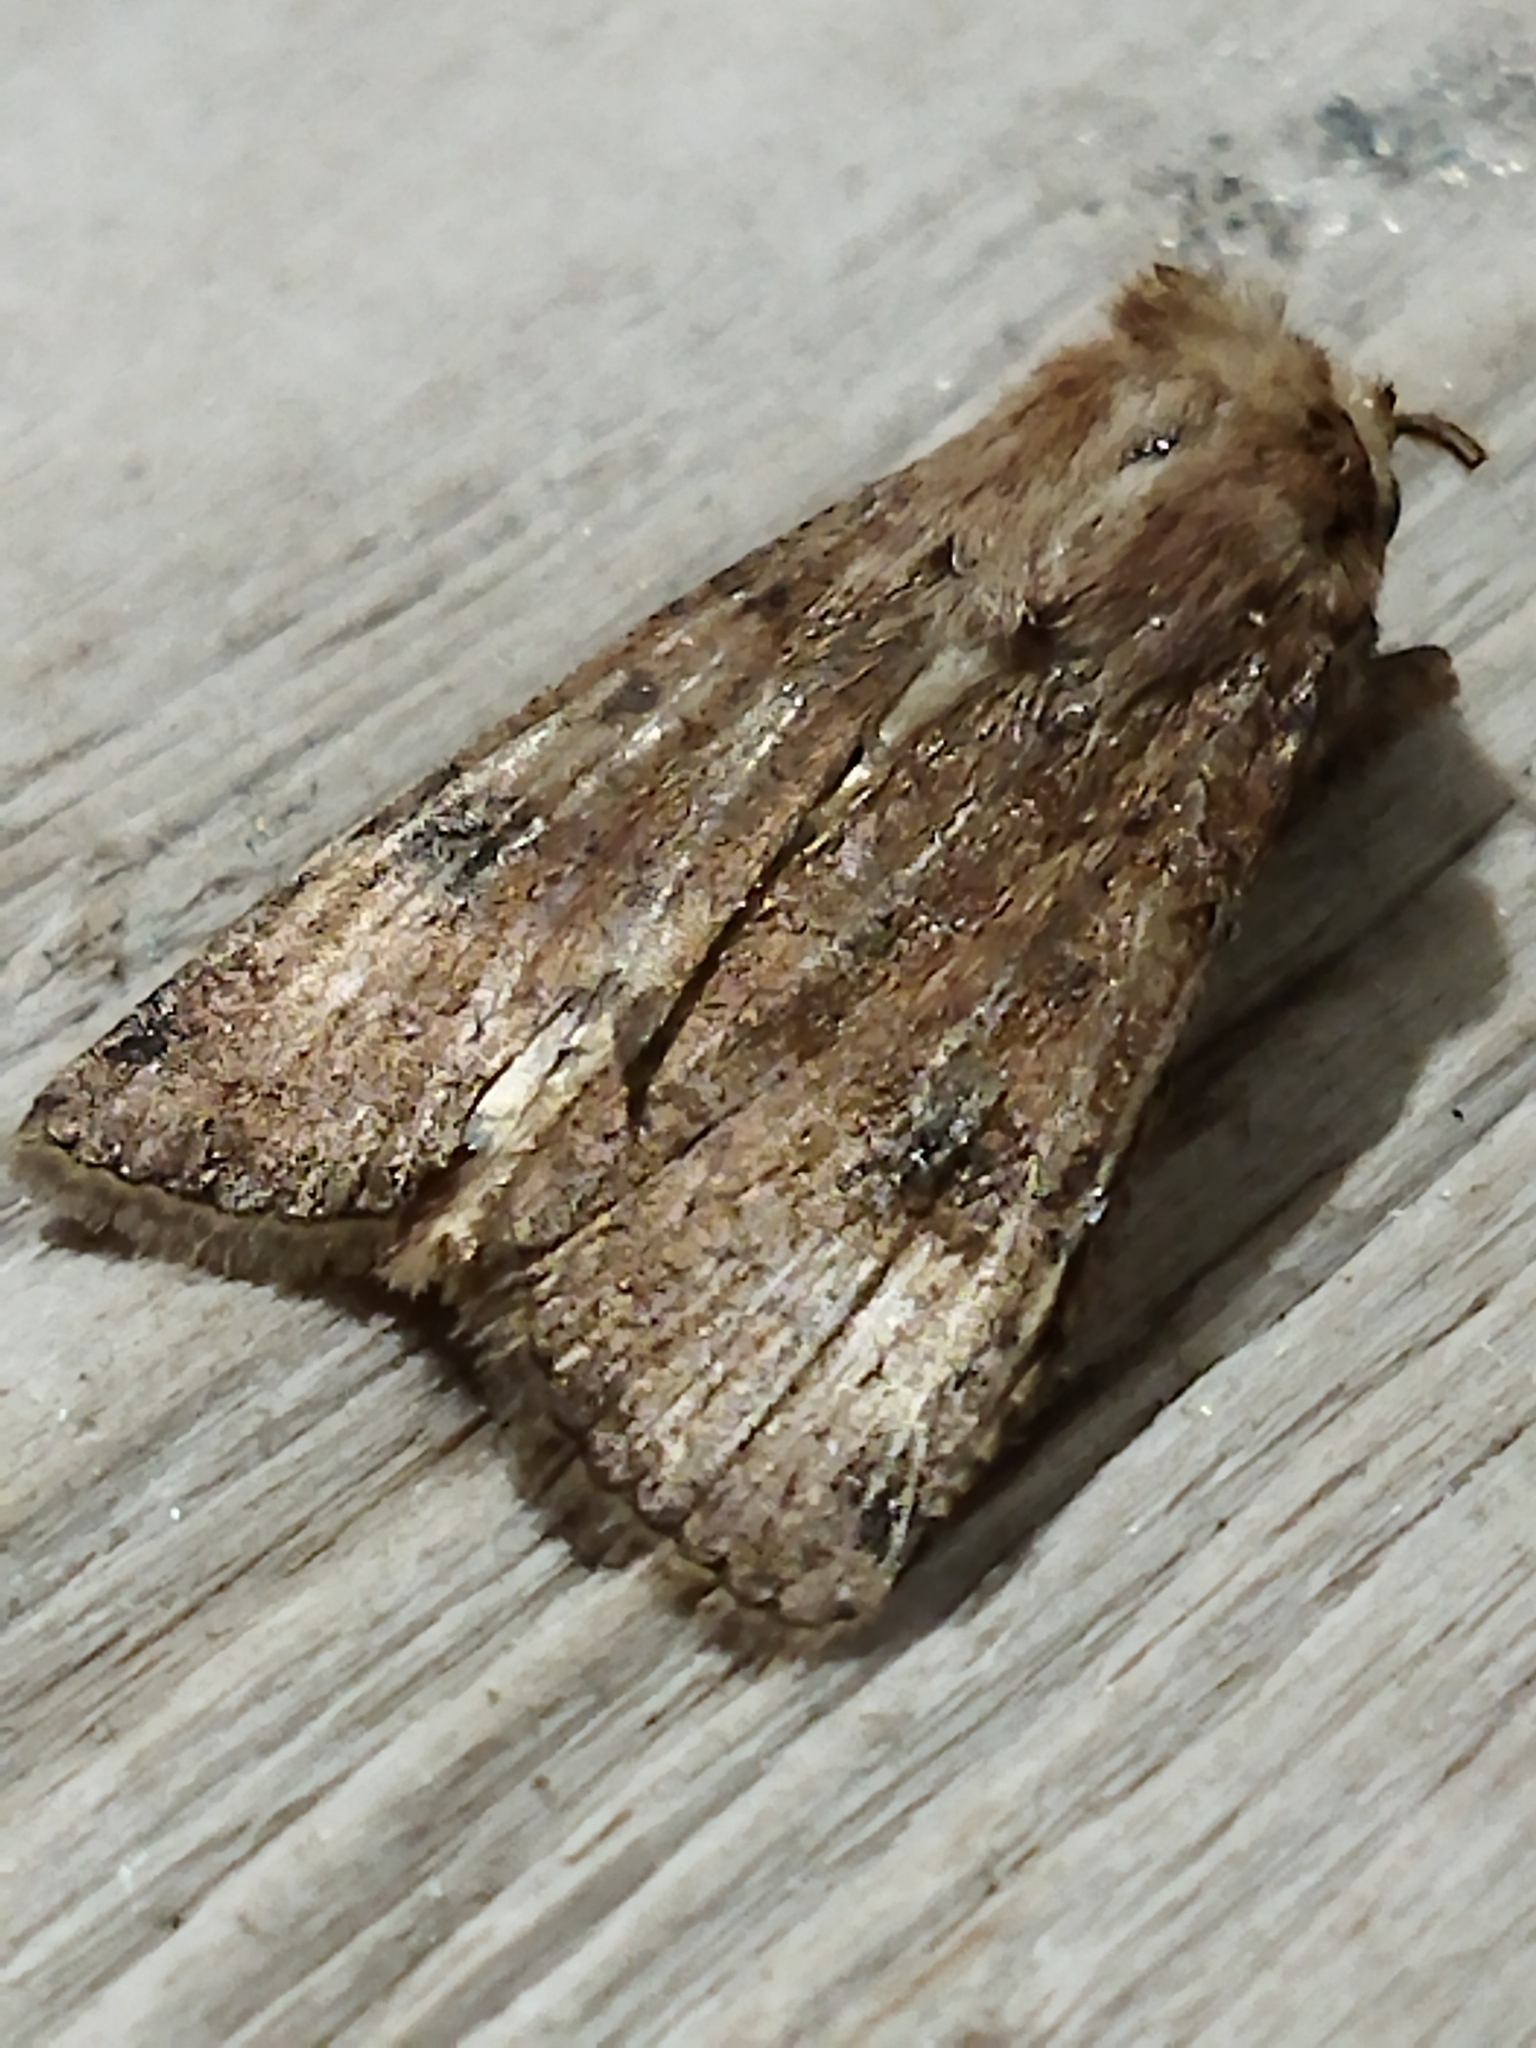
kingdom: Animalia
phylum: Arthropoda
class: Insecta
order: Lepidoptera
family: Noctuidae
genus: Agrotis
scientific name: Agrotis trux
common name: Crescent dart
